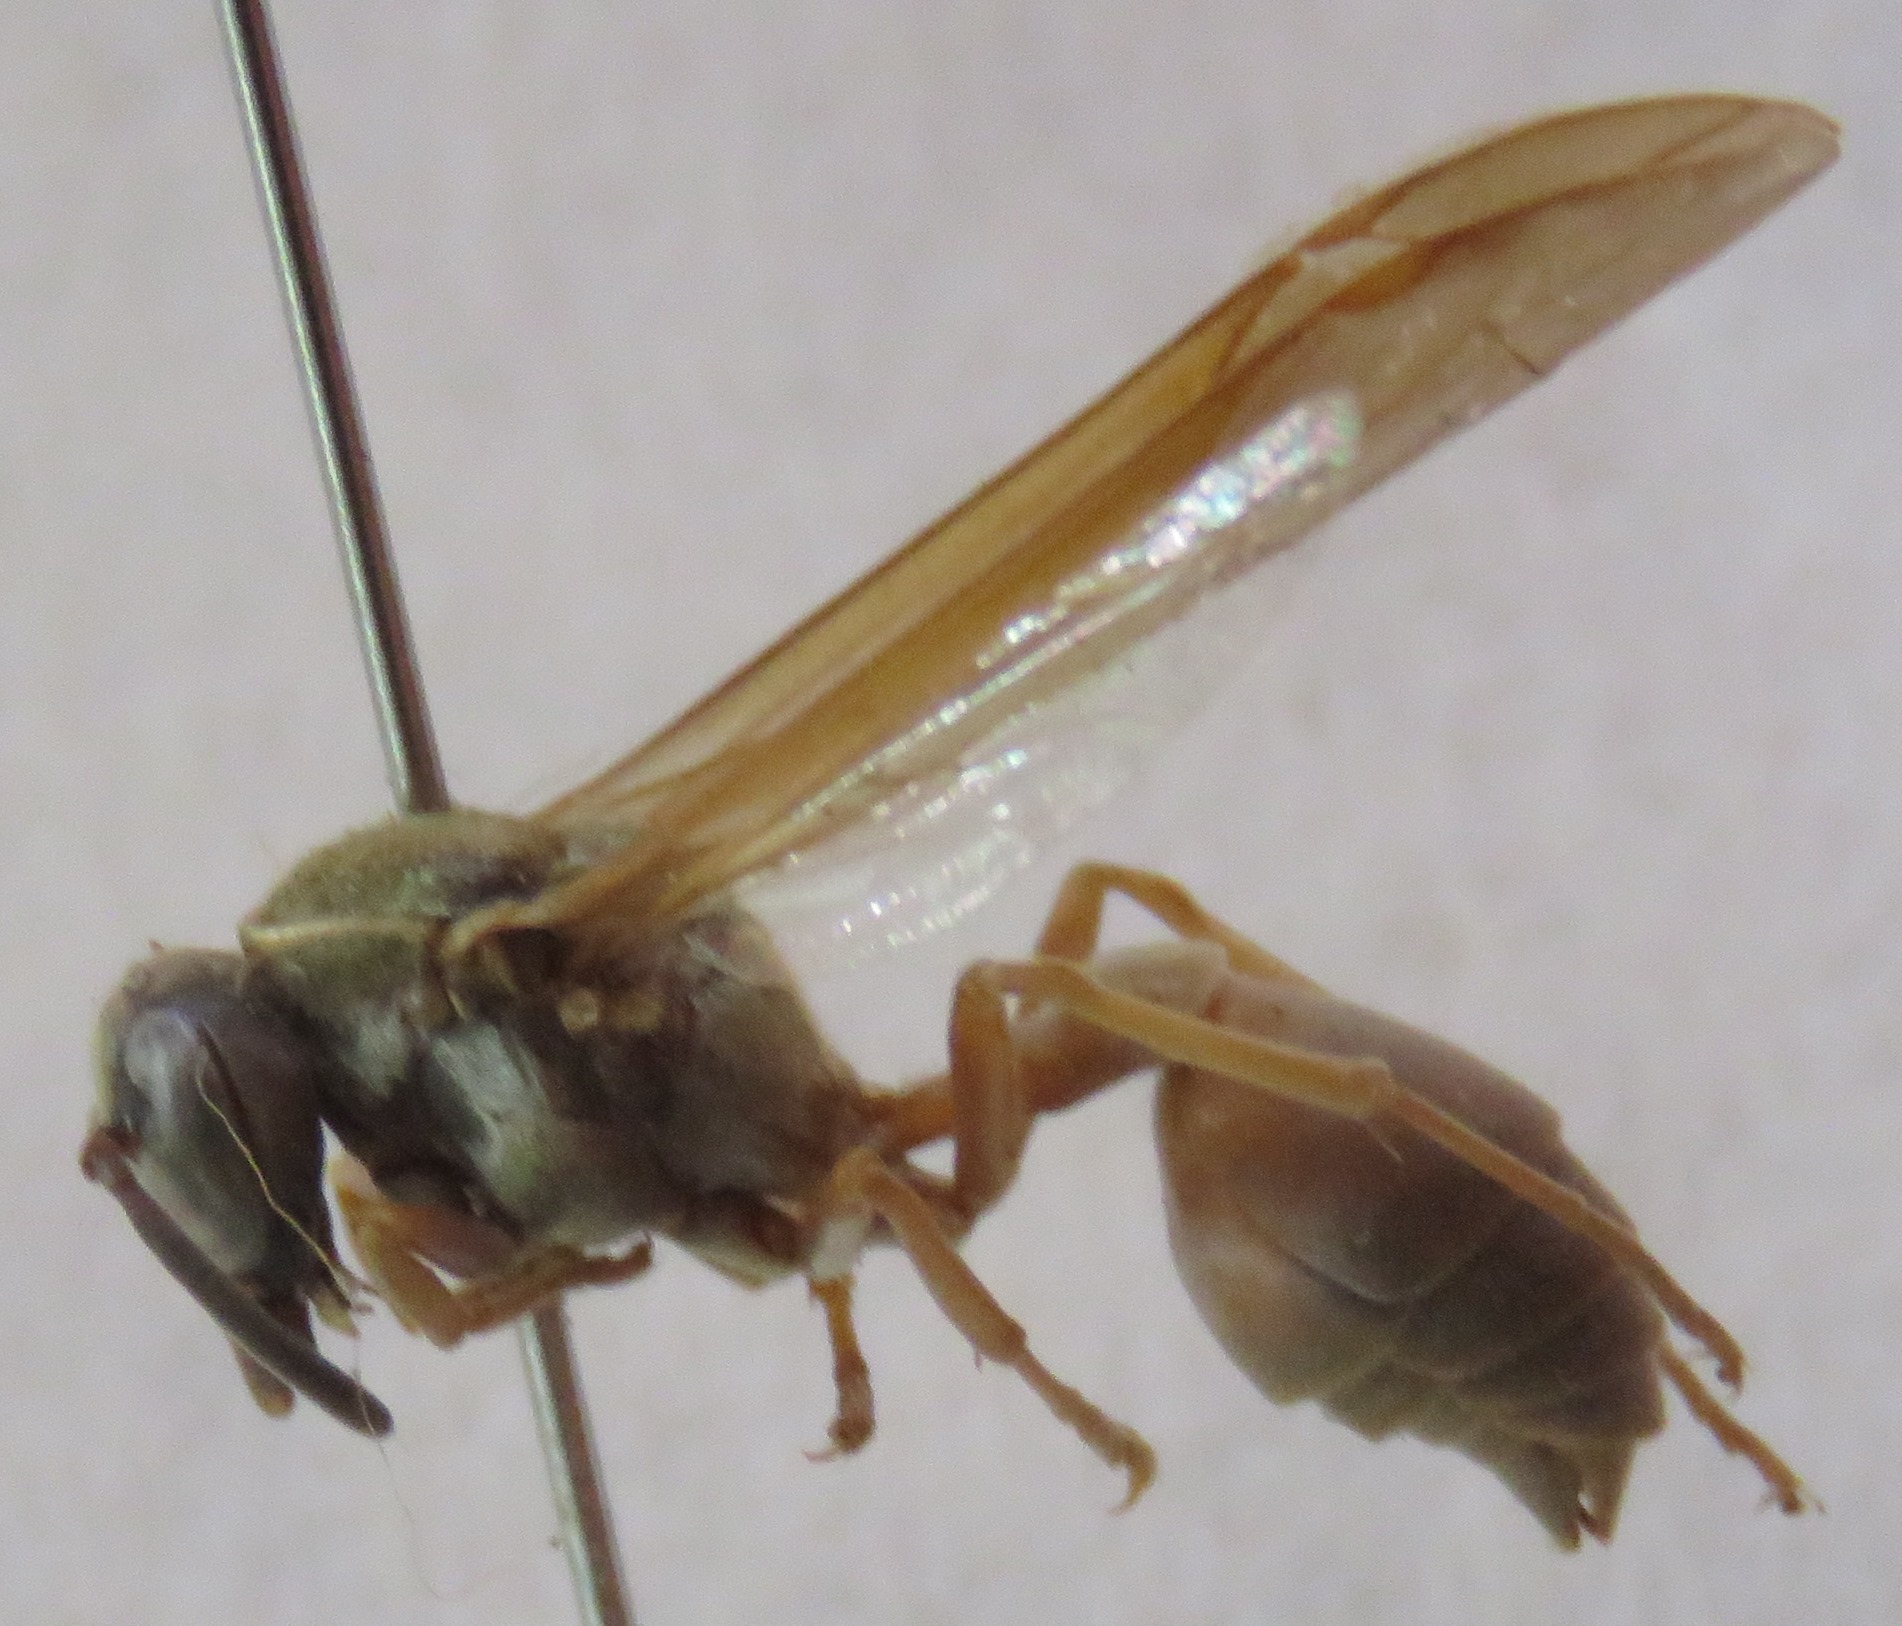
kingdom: Animalia
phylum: Arthropoda
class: Insecta
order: Hymenoptera
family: Eumenidae
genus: Polybia
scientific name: Polybia chrysothorax
